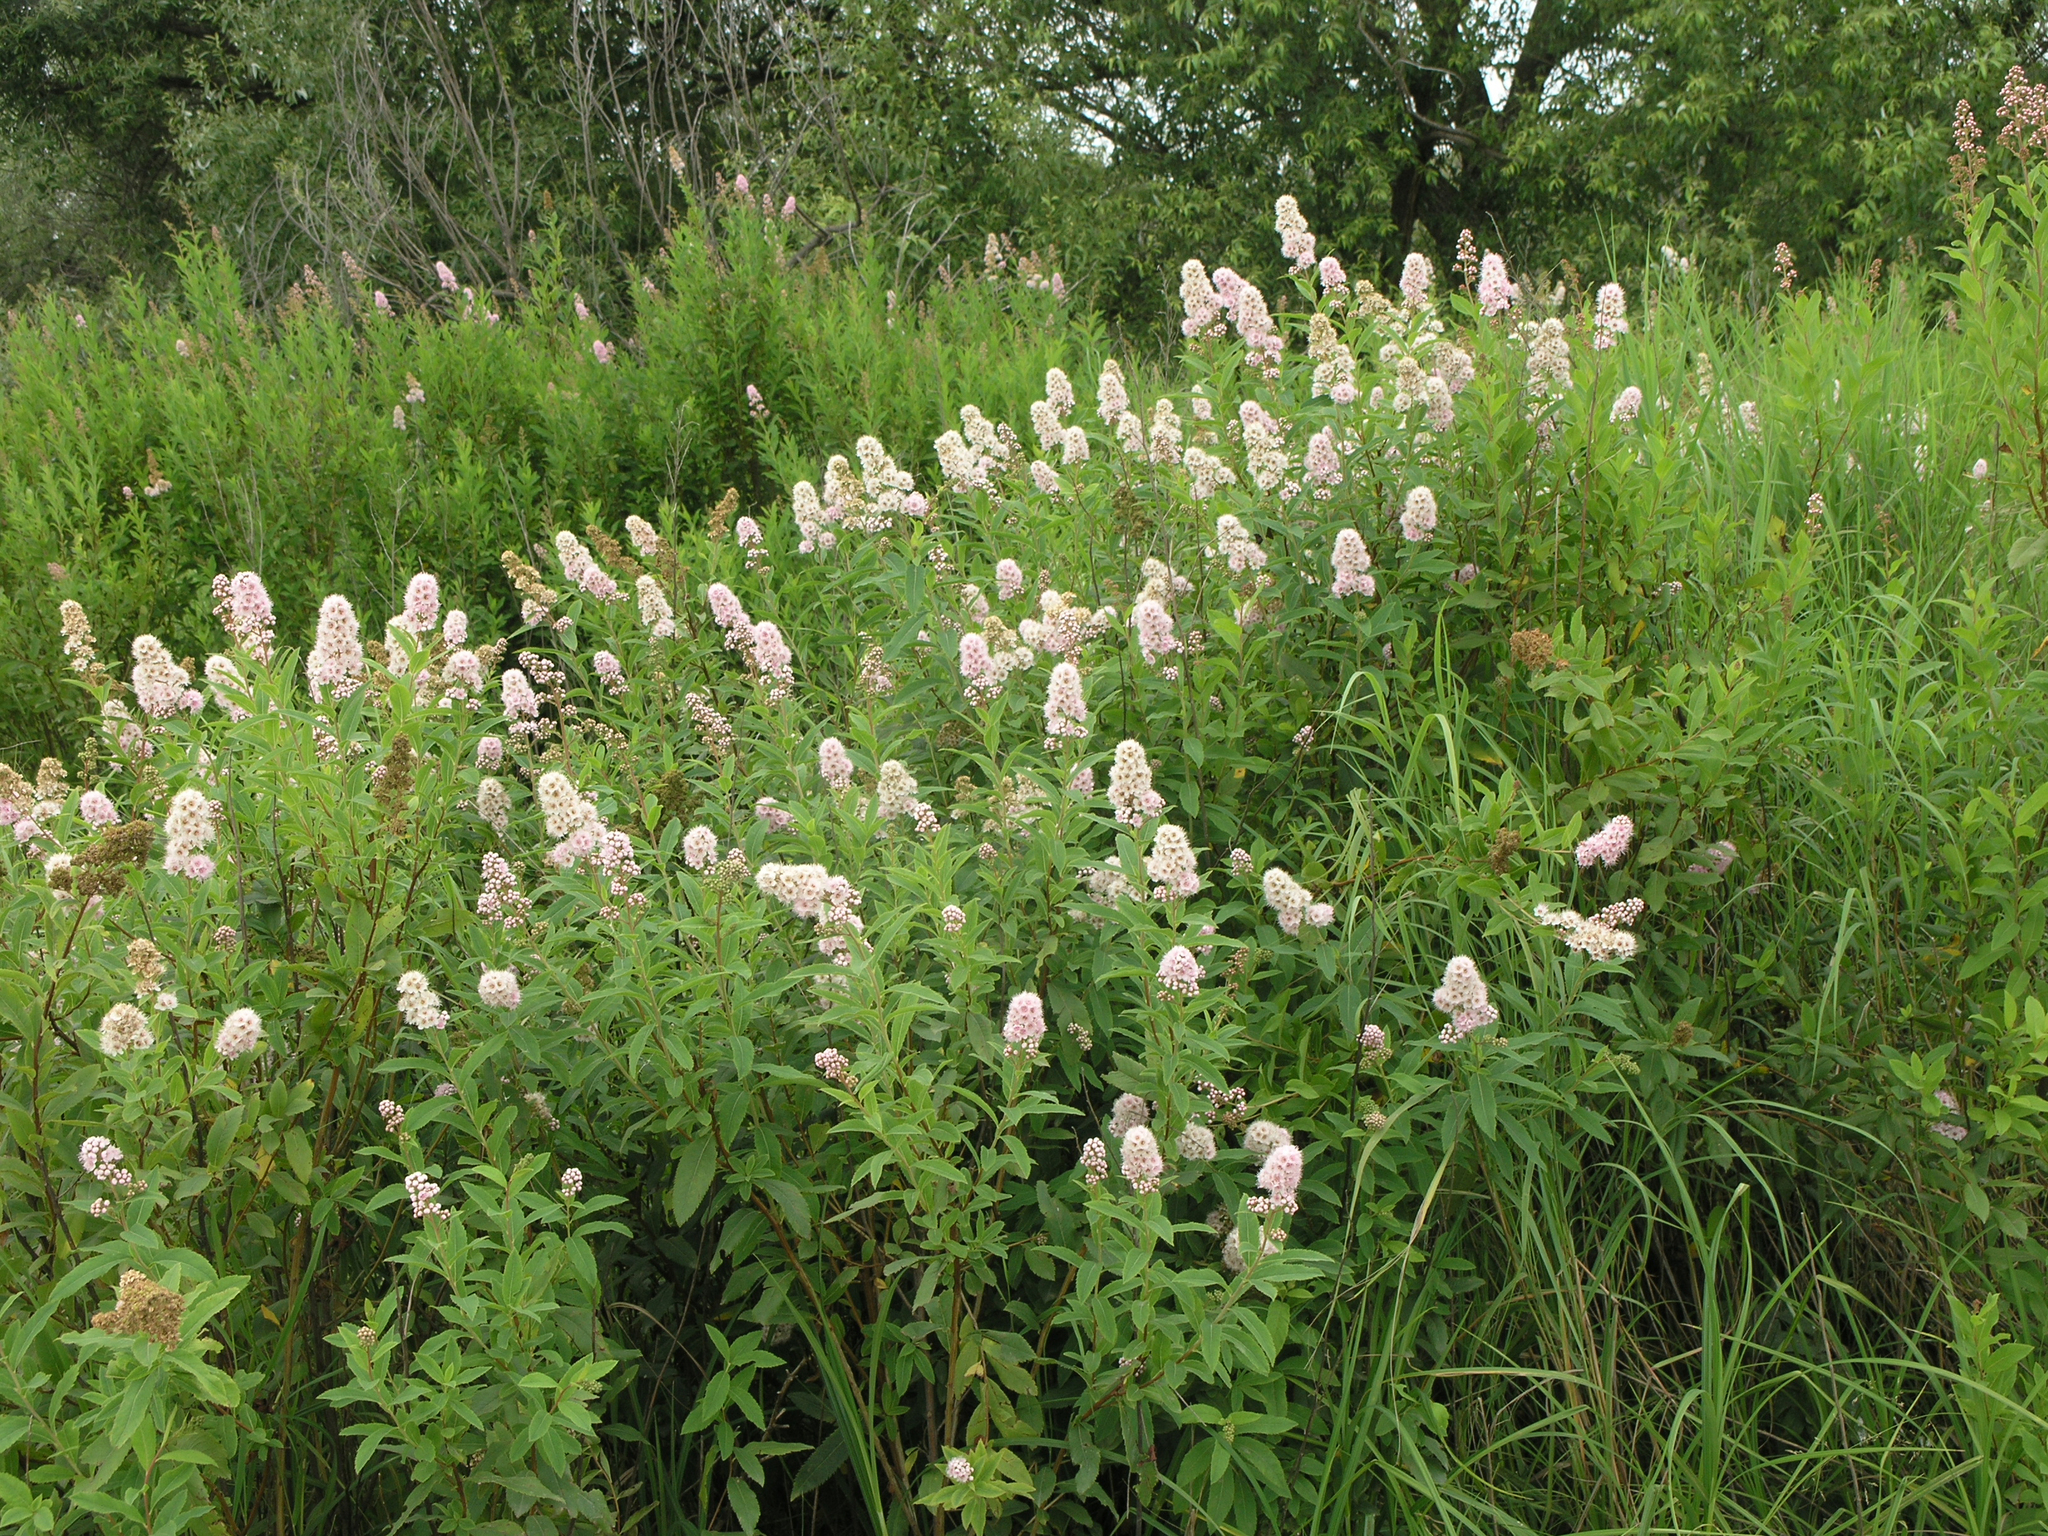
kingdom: Plantae
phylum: Tracheophyta
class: Magnoliopsida
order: Rosales
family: Rosaceae
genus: Spiraea
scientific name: Spiraea salicifolia
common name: Bridewort
